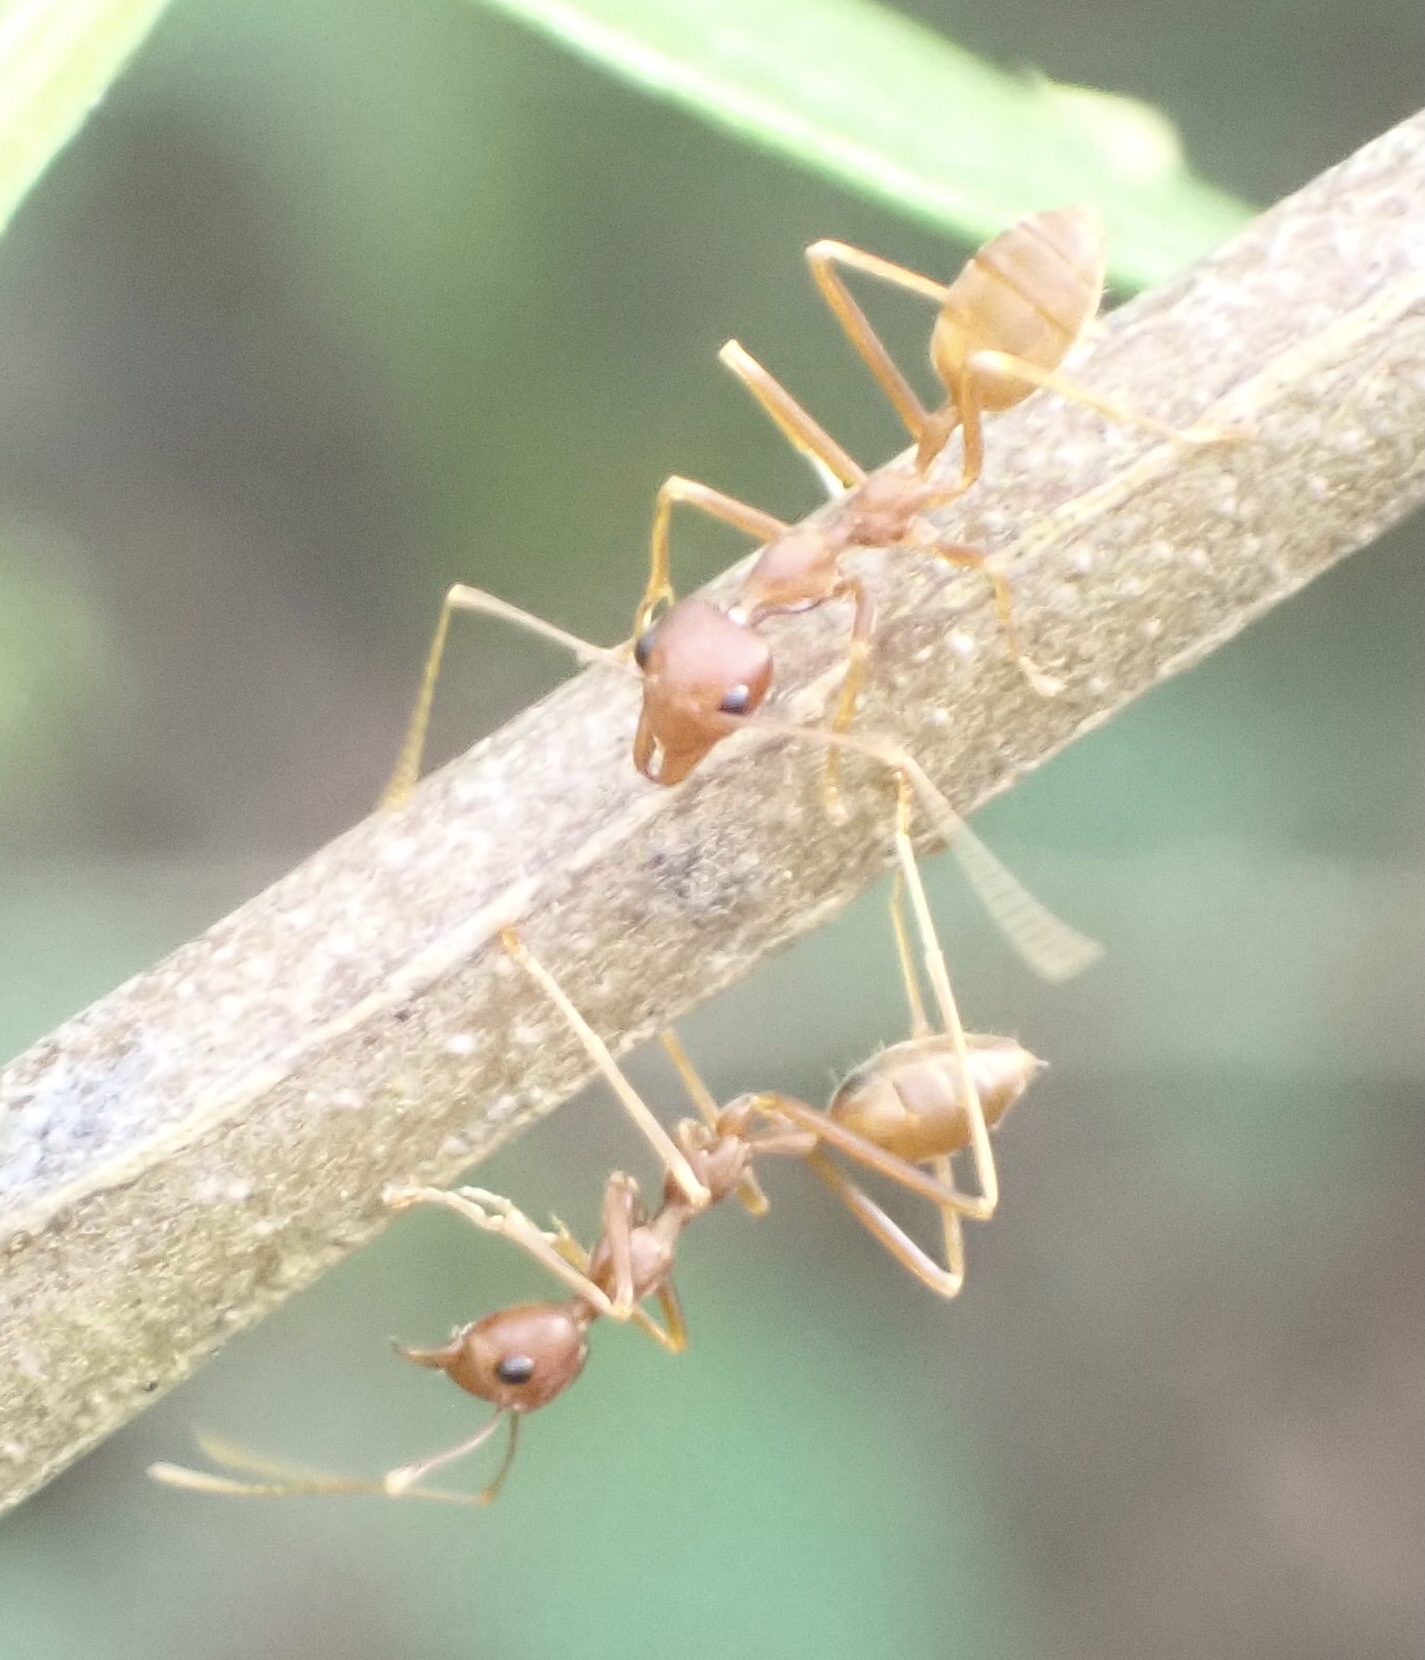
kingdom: Animalia
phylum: Arthropoda
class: Insecta
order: Hymenoptera
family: Formicidae
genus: Oecophylla
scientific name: Oecophylla longinoda
